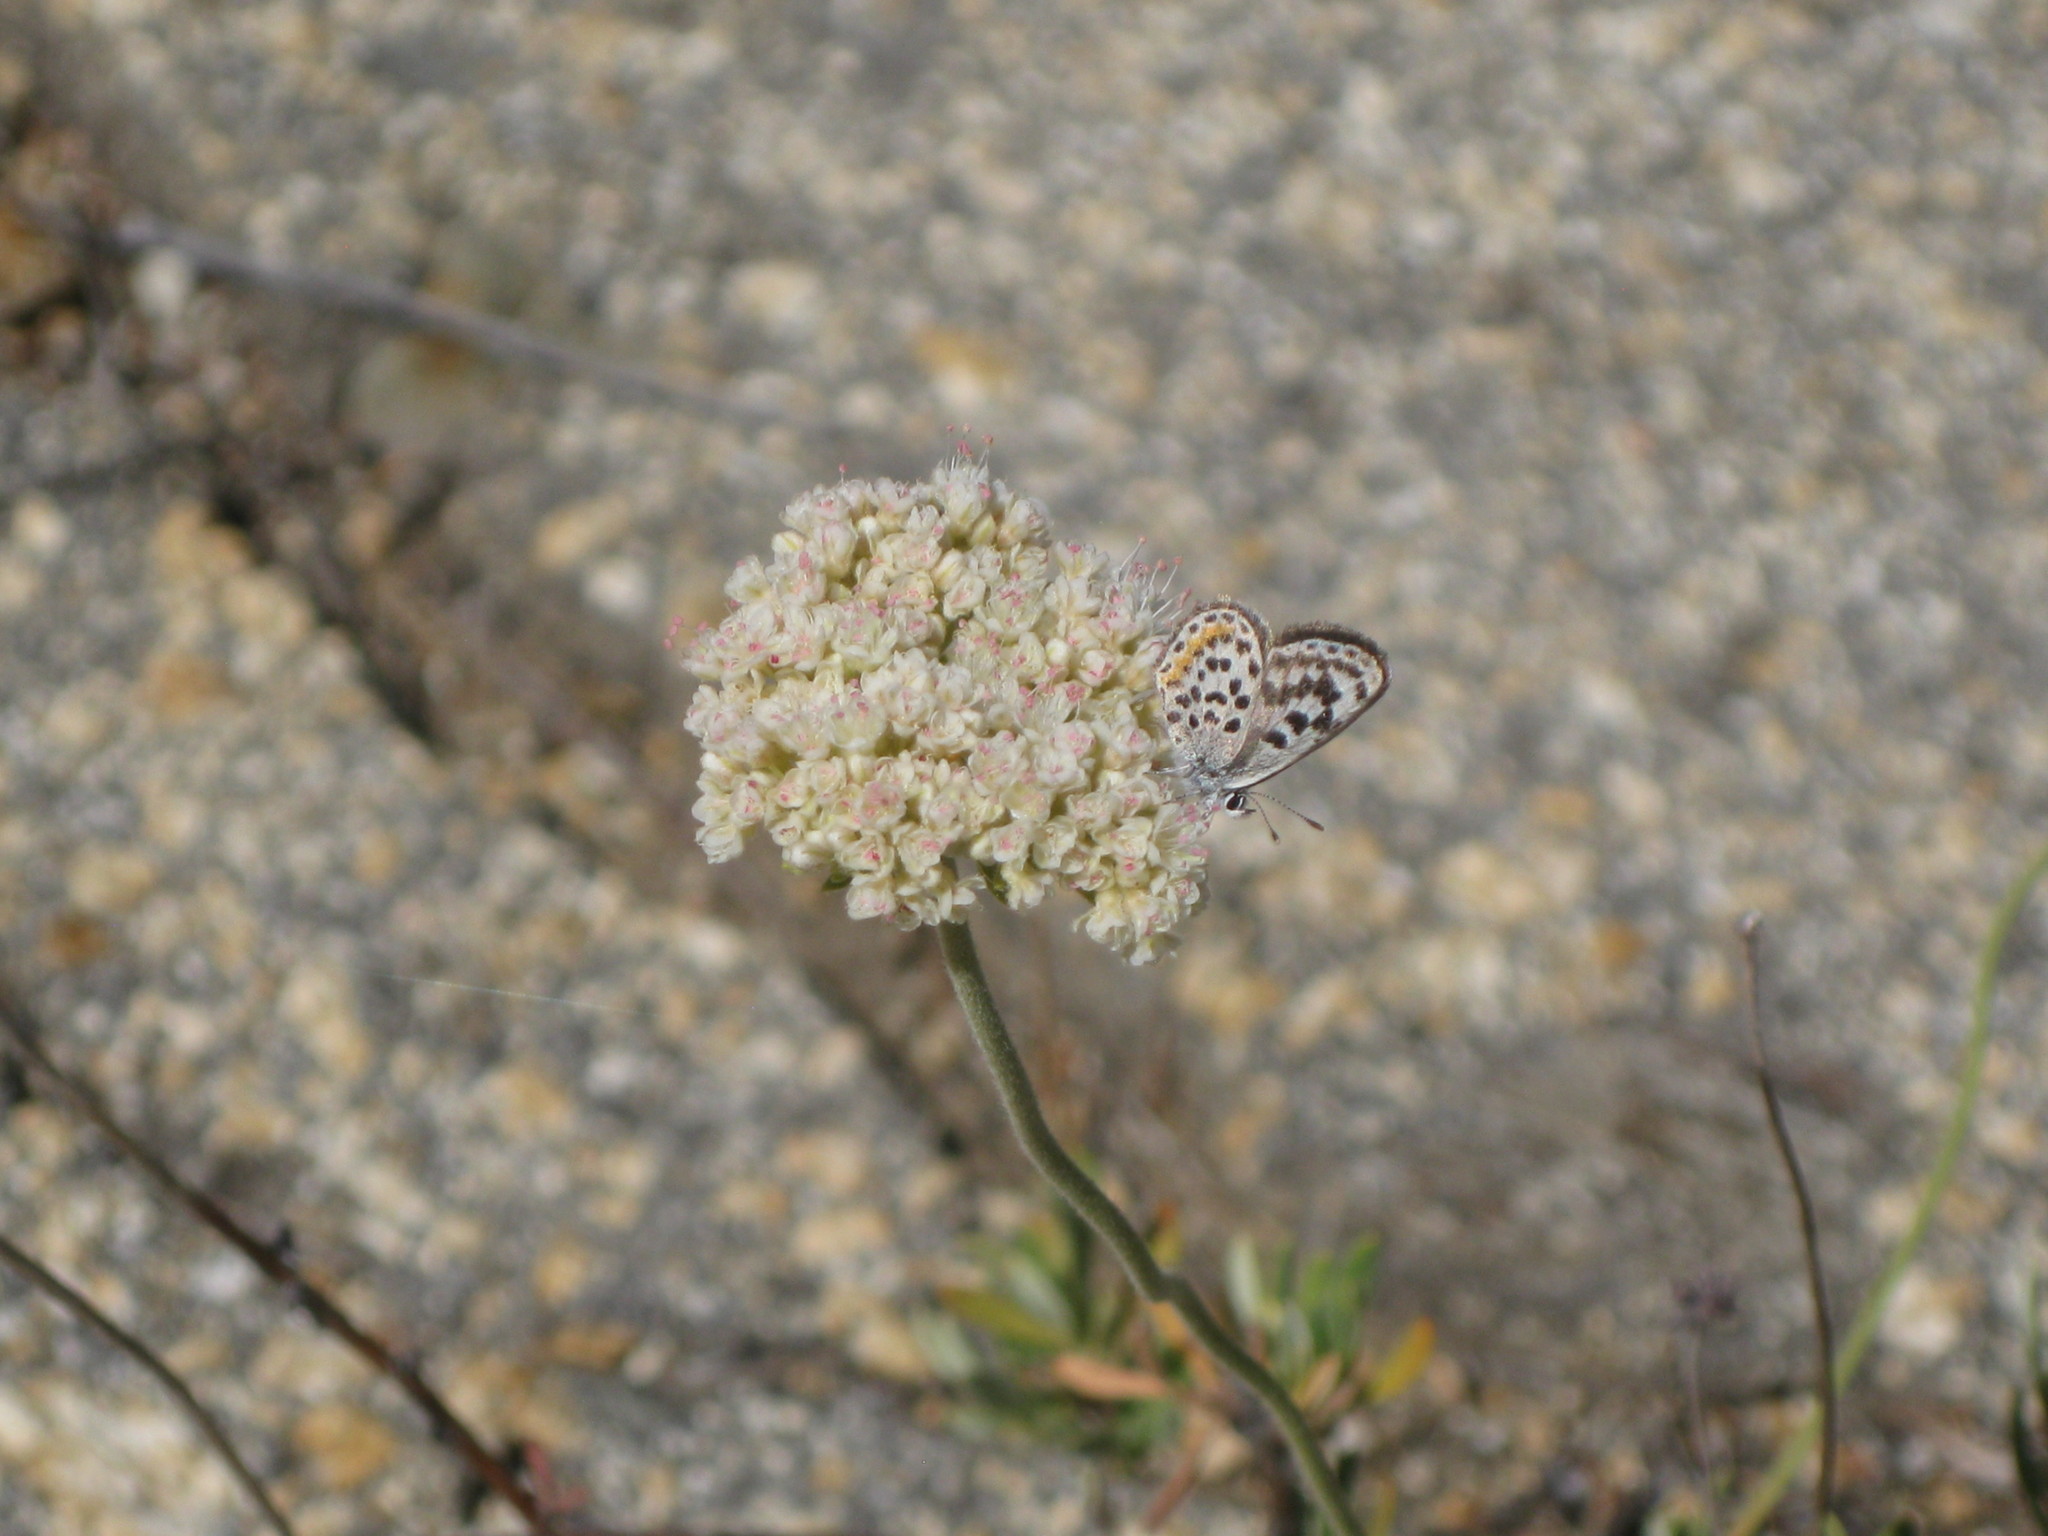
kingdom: Animalia
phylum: Arthropoda
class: Insecta
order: Lepidoptera
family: Lycaenidae
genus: Philotes
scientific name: Philotes bernardino
